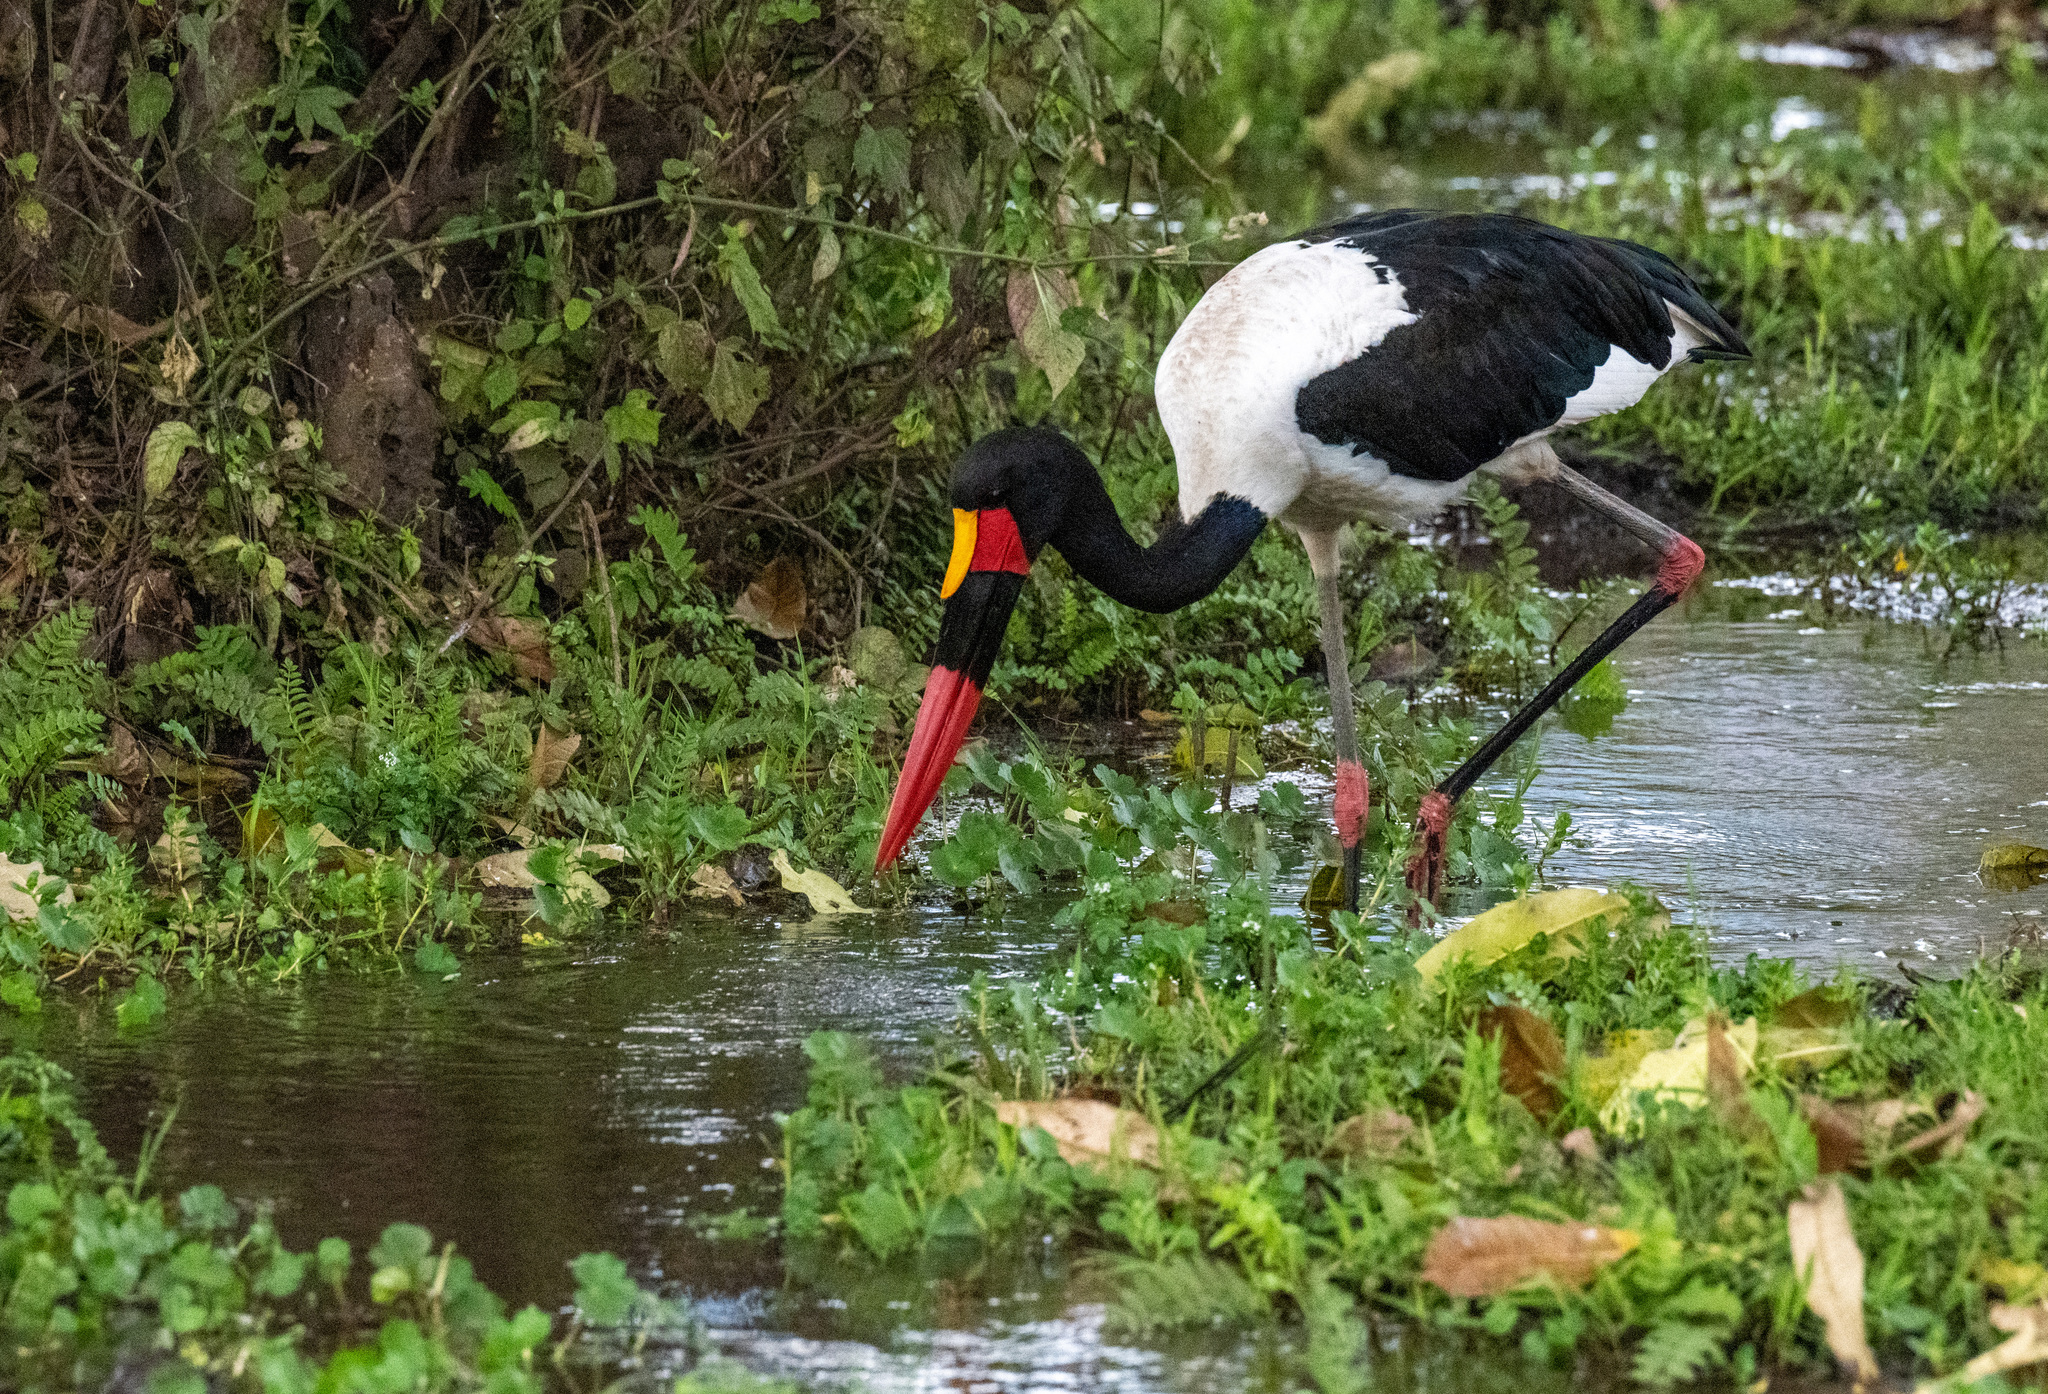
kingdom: Animalia
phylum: Chordata
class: Aves
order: Ciconiiformes
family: Ciconiidae
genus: Ephippiorhynchus
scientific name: Ephippiorhynchus senegalensis
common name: Saddle-billed stork
